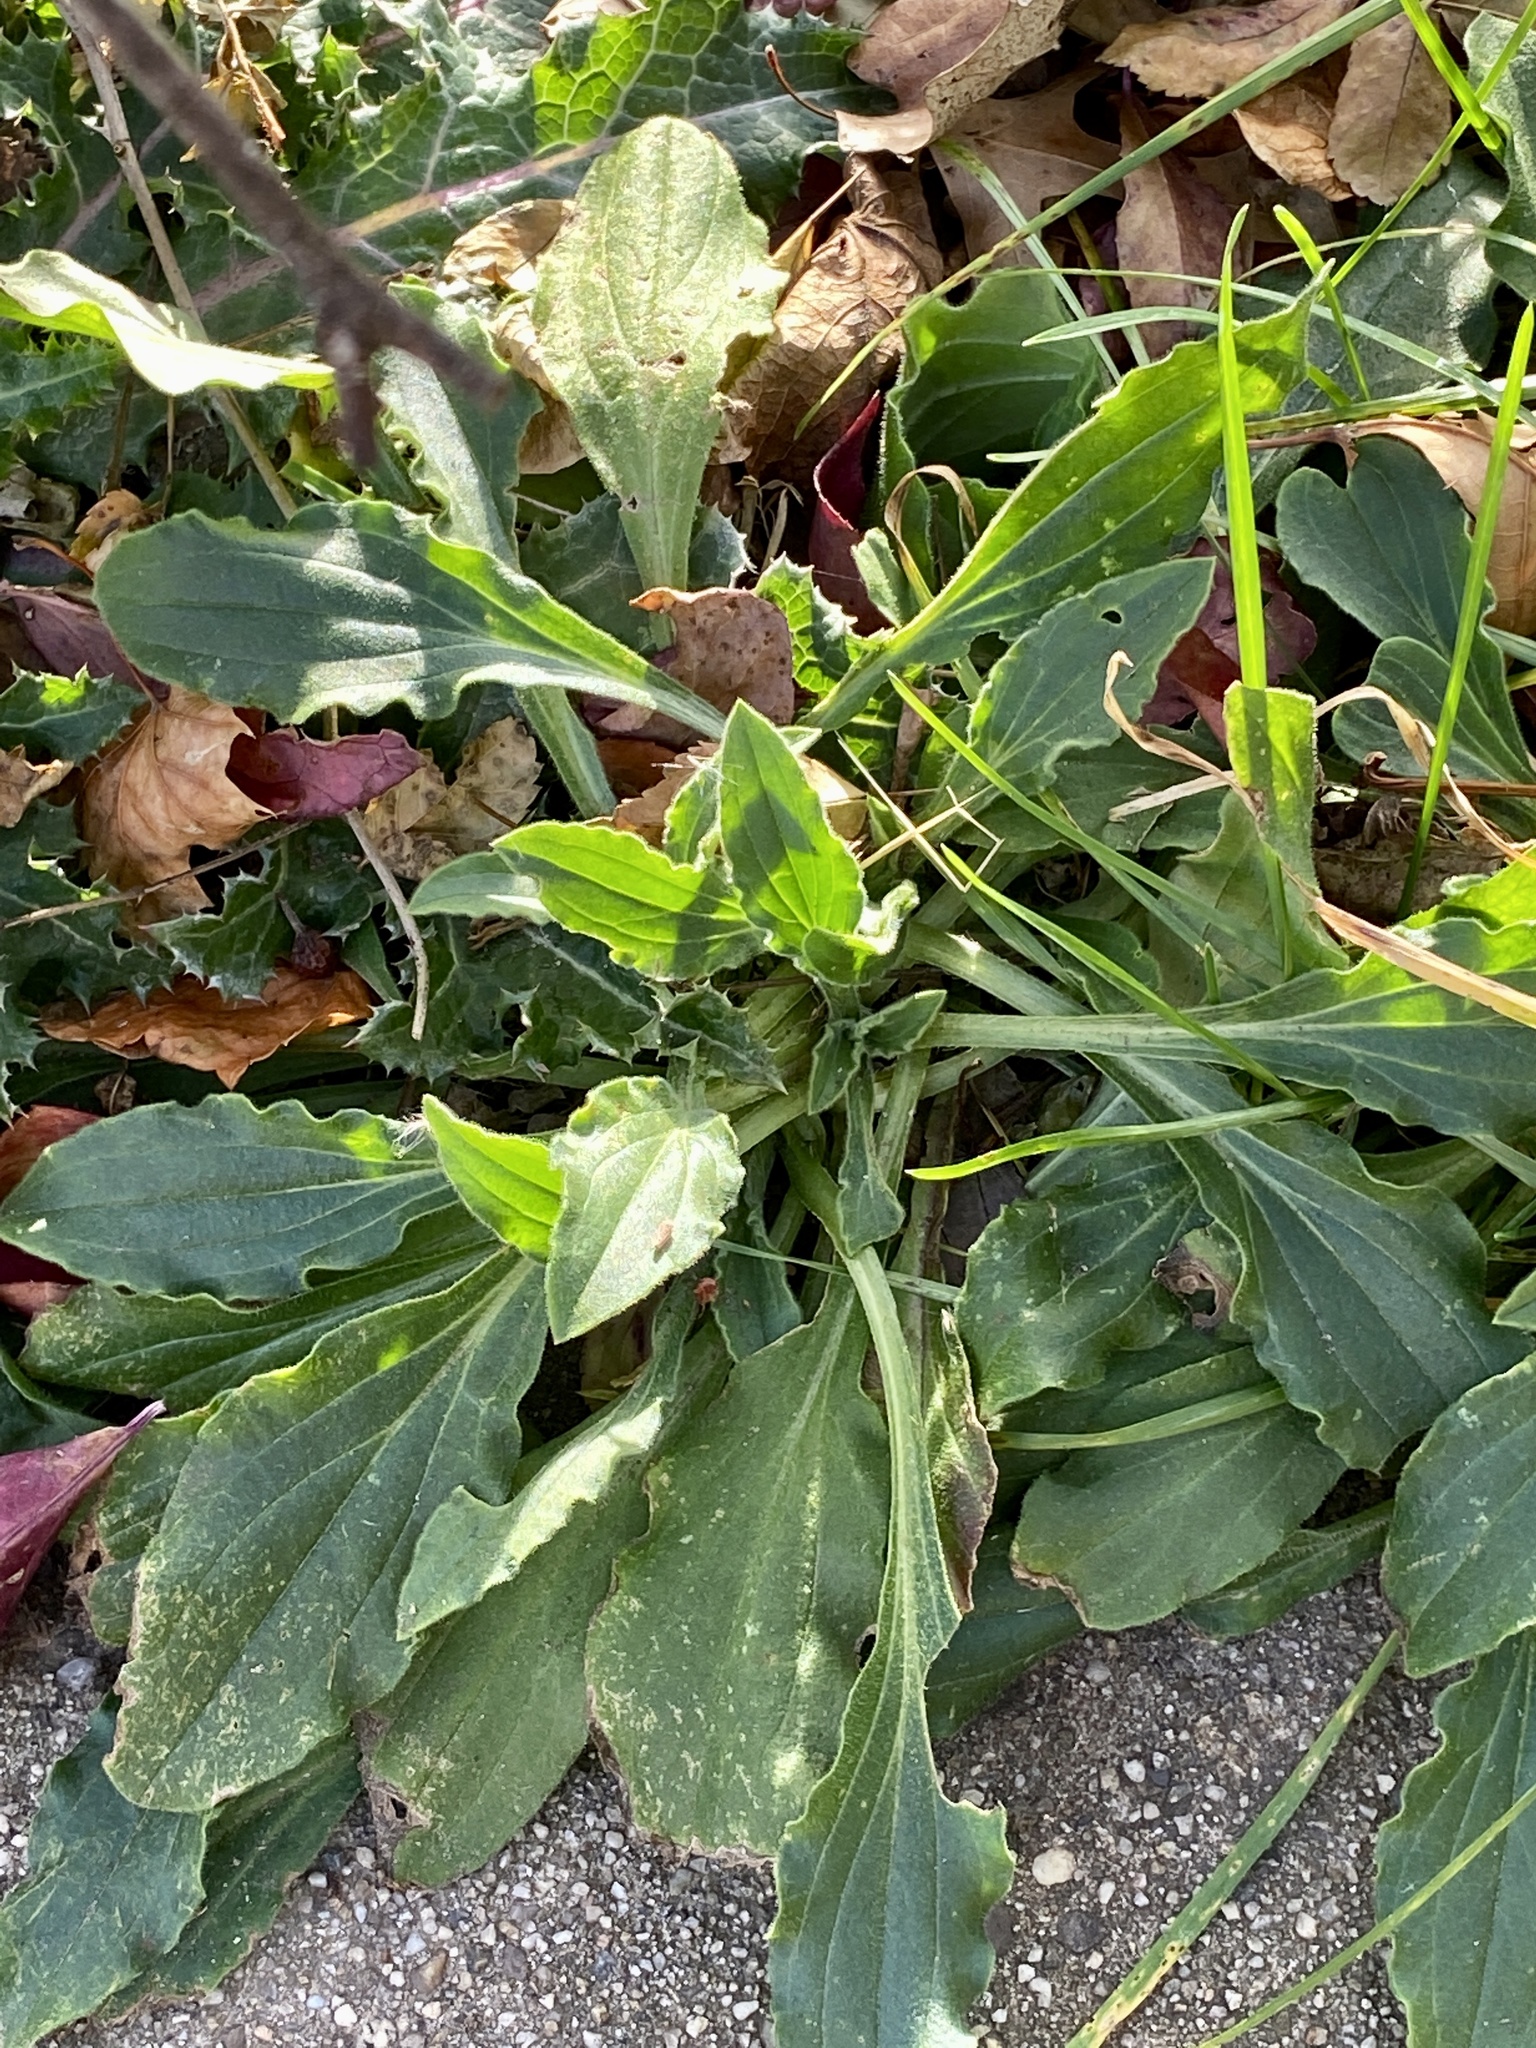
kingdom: Plantae
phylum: Tracheophyta
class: Magnoliopsida
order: Caryophyllales
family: Caryophyllaceae
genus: Silene
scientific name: Silene latifolia
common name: White campion
